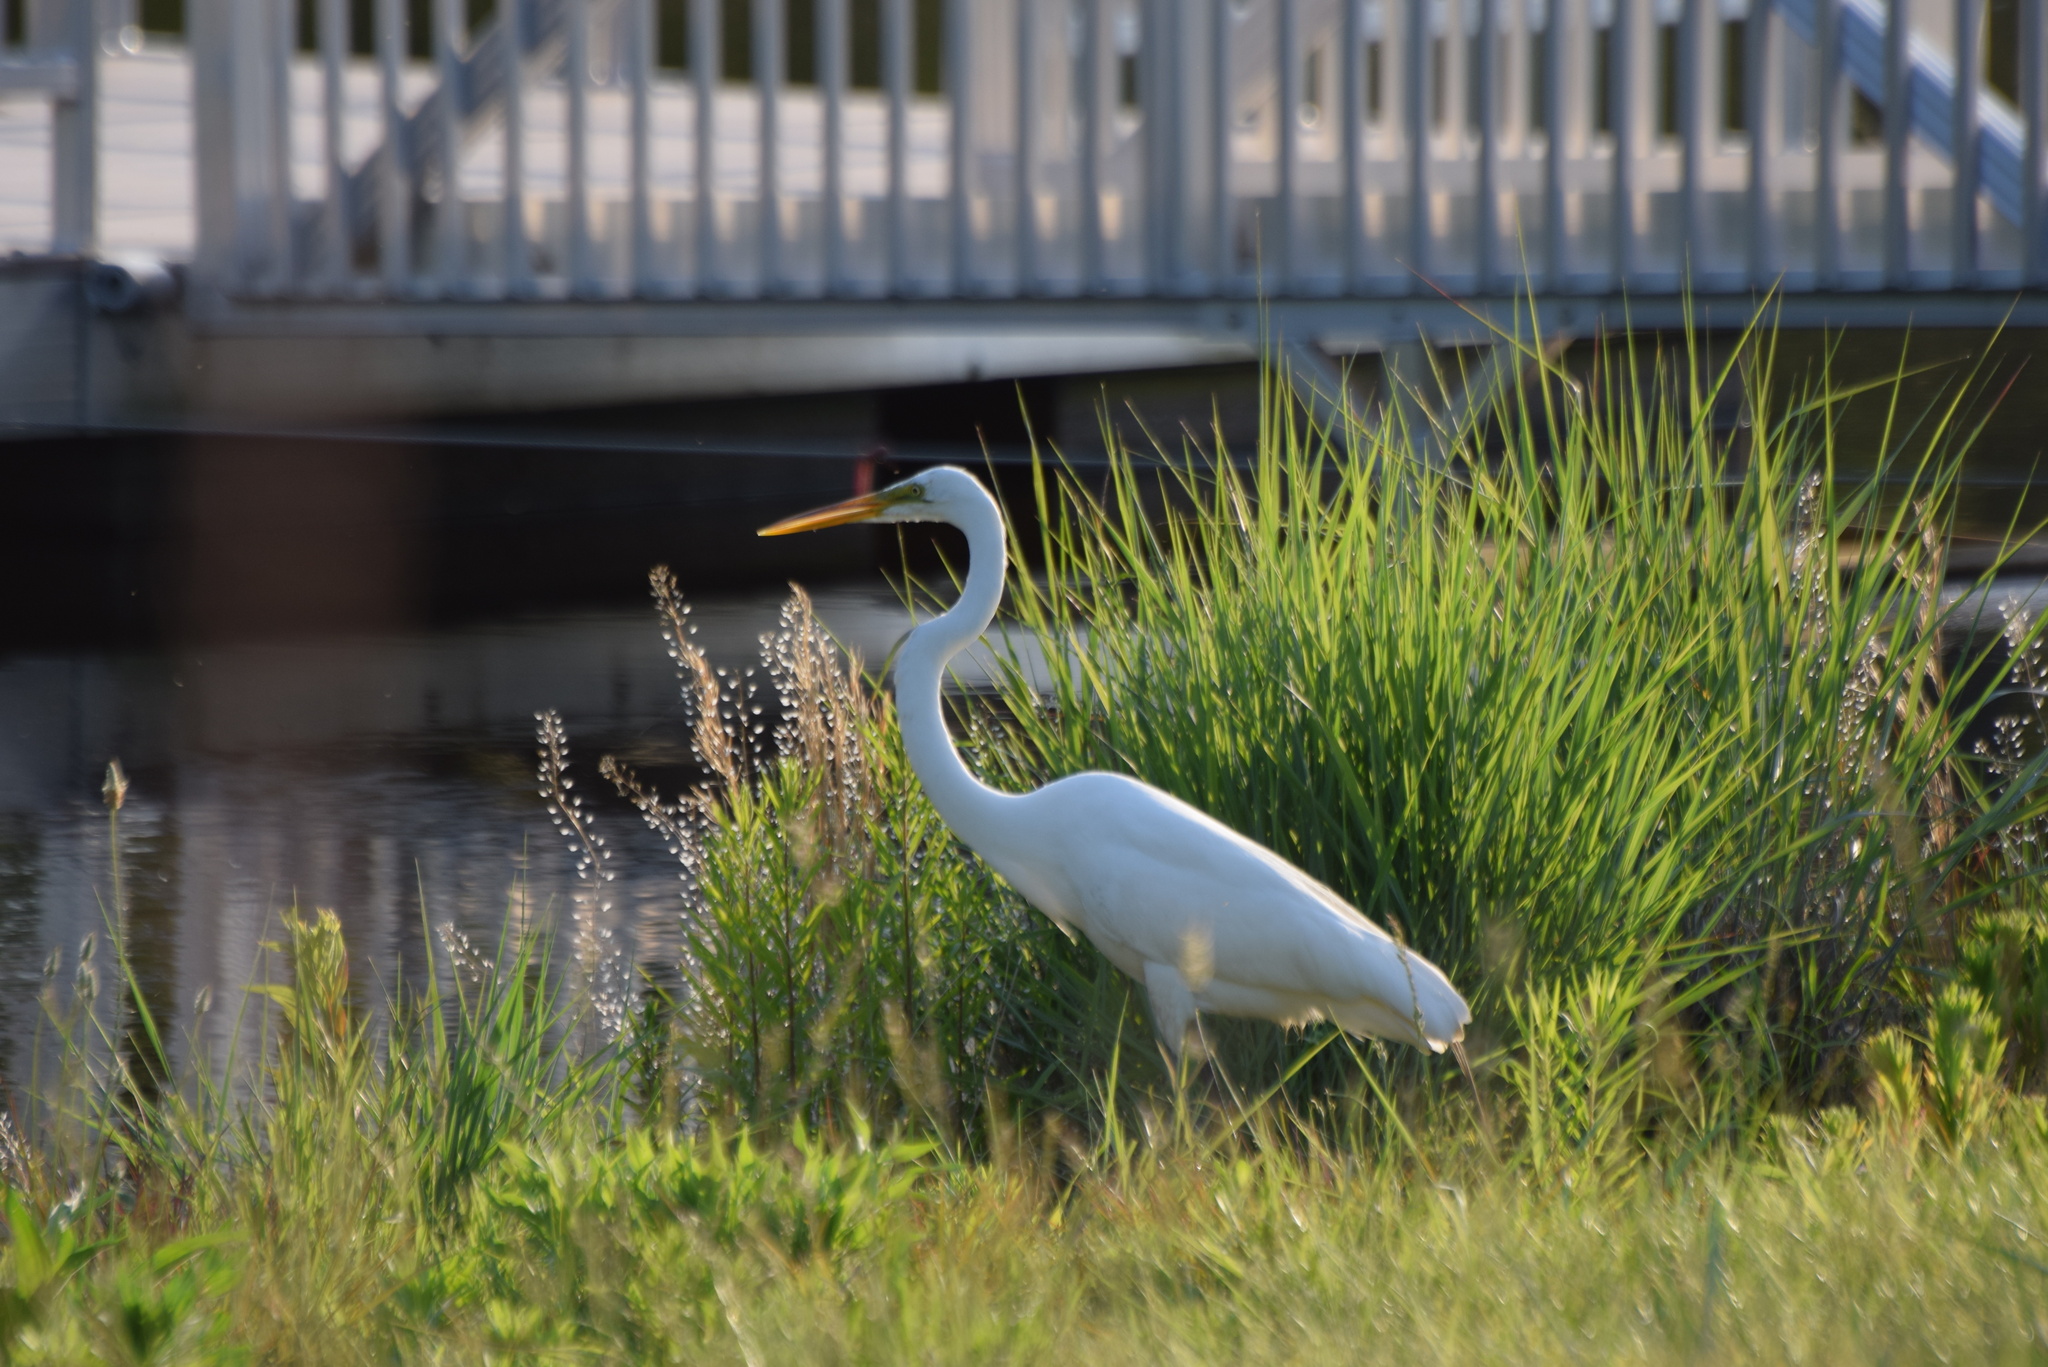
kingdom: Animalia
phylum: Chordata
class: Aves
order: Pelecaniformes
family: Ardeidae
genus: Ardea
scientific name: Ardea alba
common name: Great egret
